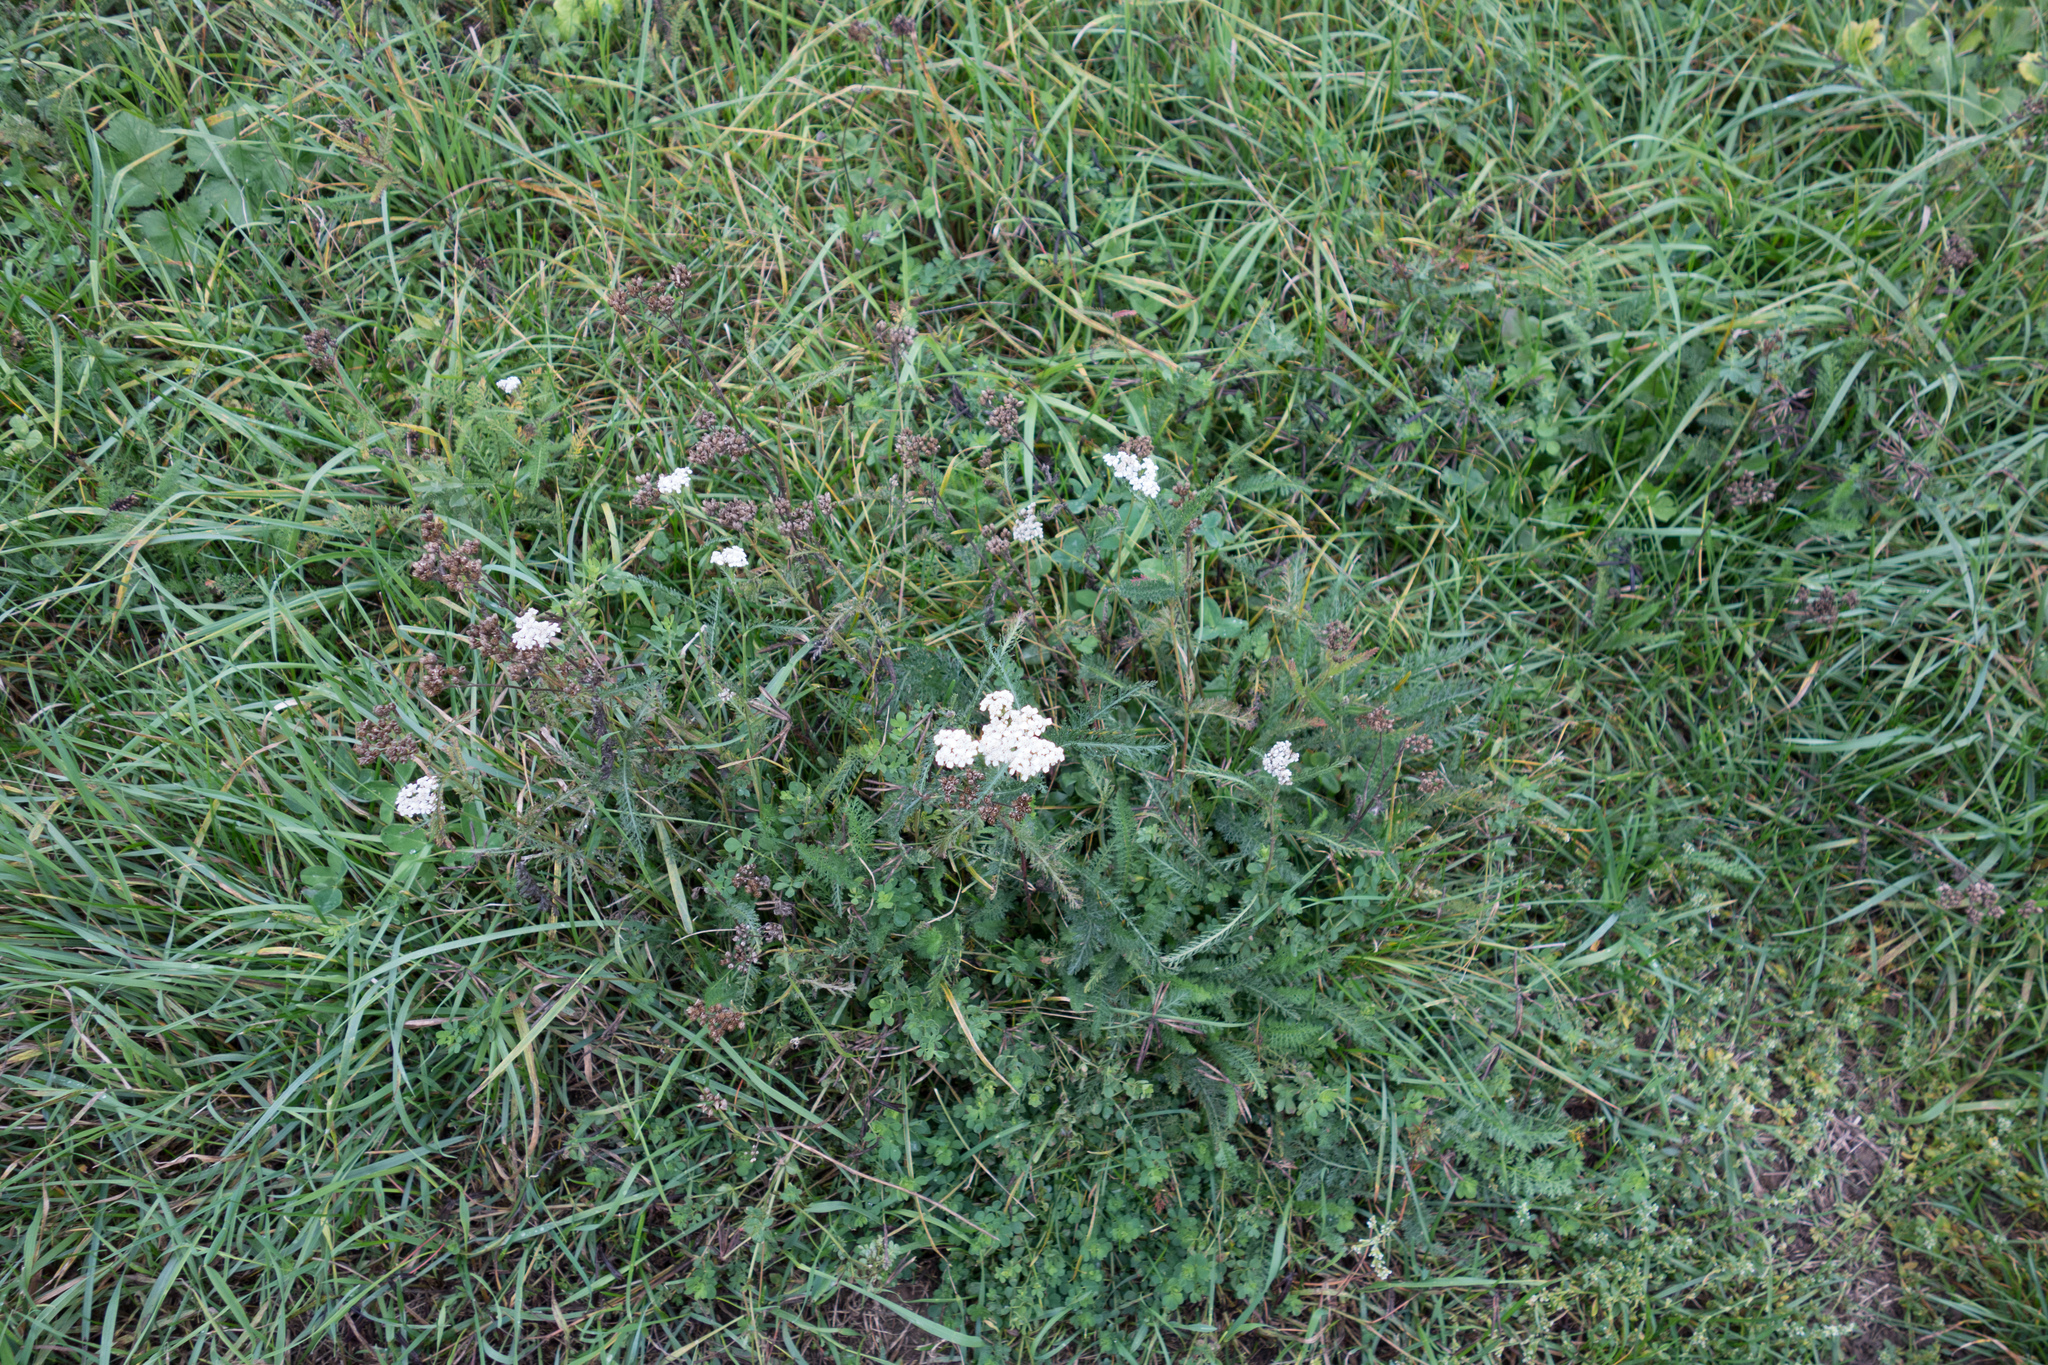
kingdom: Plantae
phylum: Tracheophyta
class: Magnoliopsida
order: Asterales
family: Asteraceae
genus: Achillea
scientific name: Achillea millefolium
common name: Yarrow
